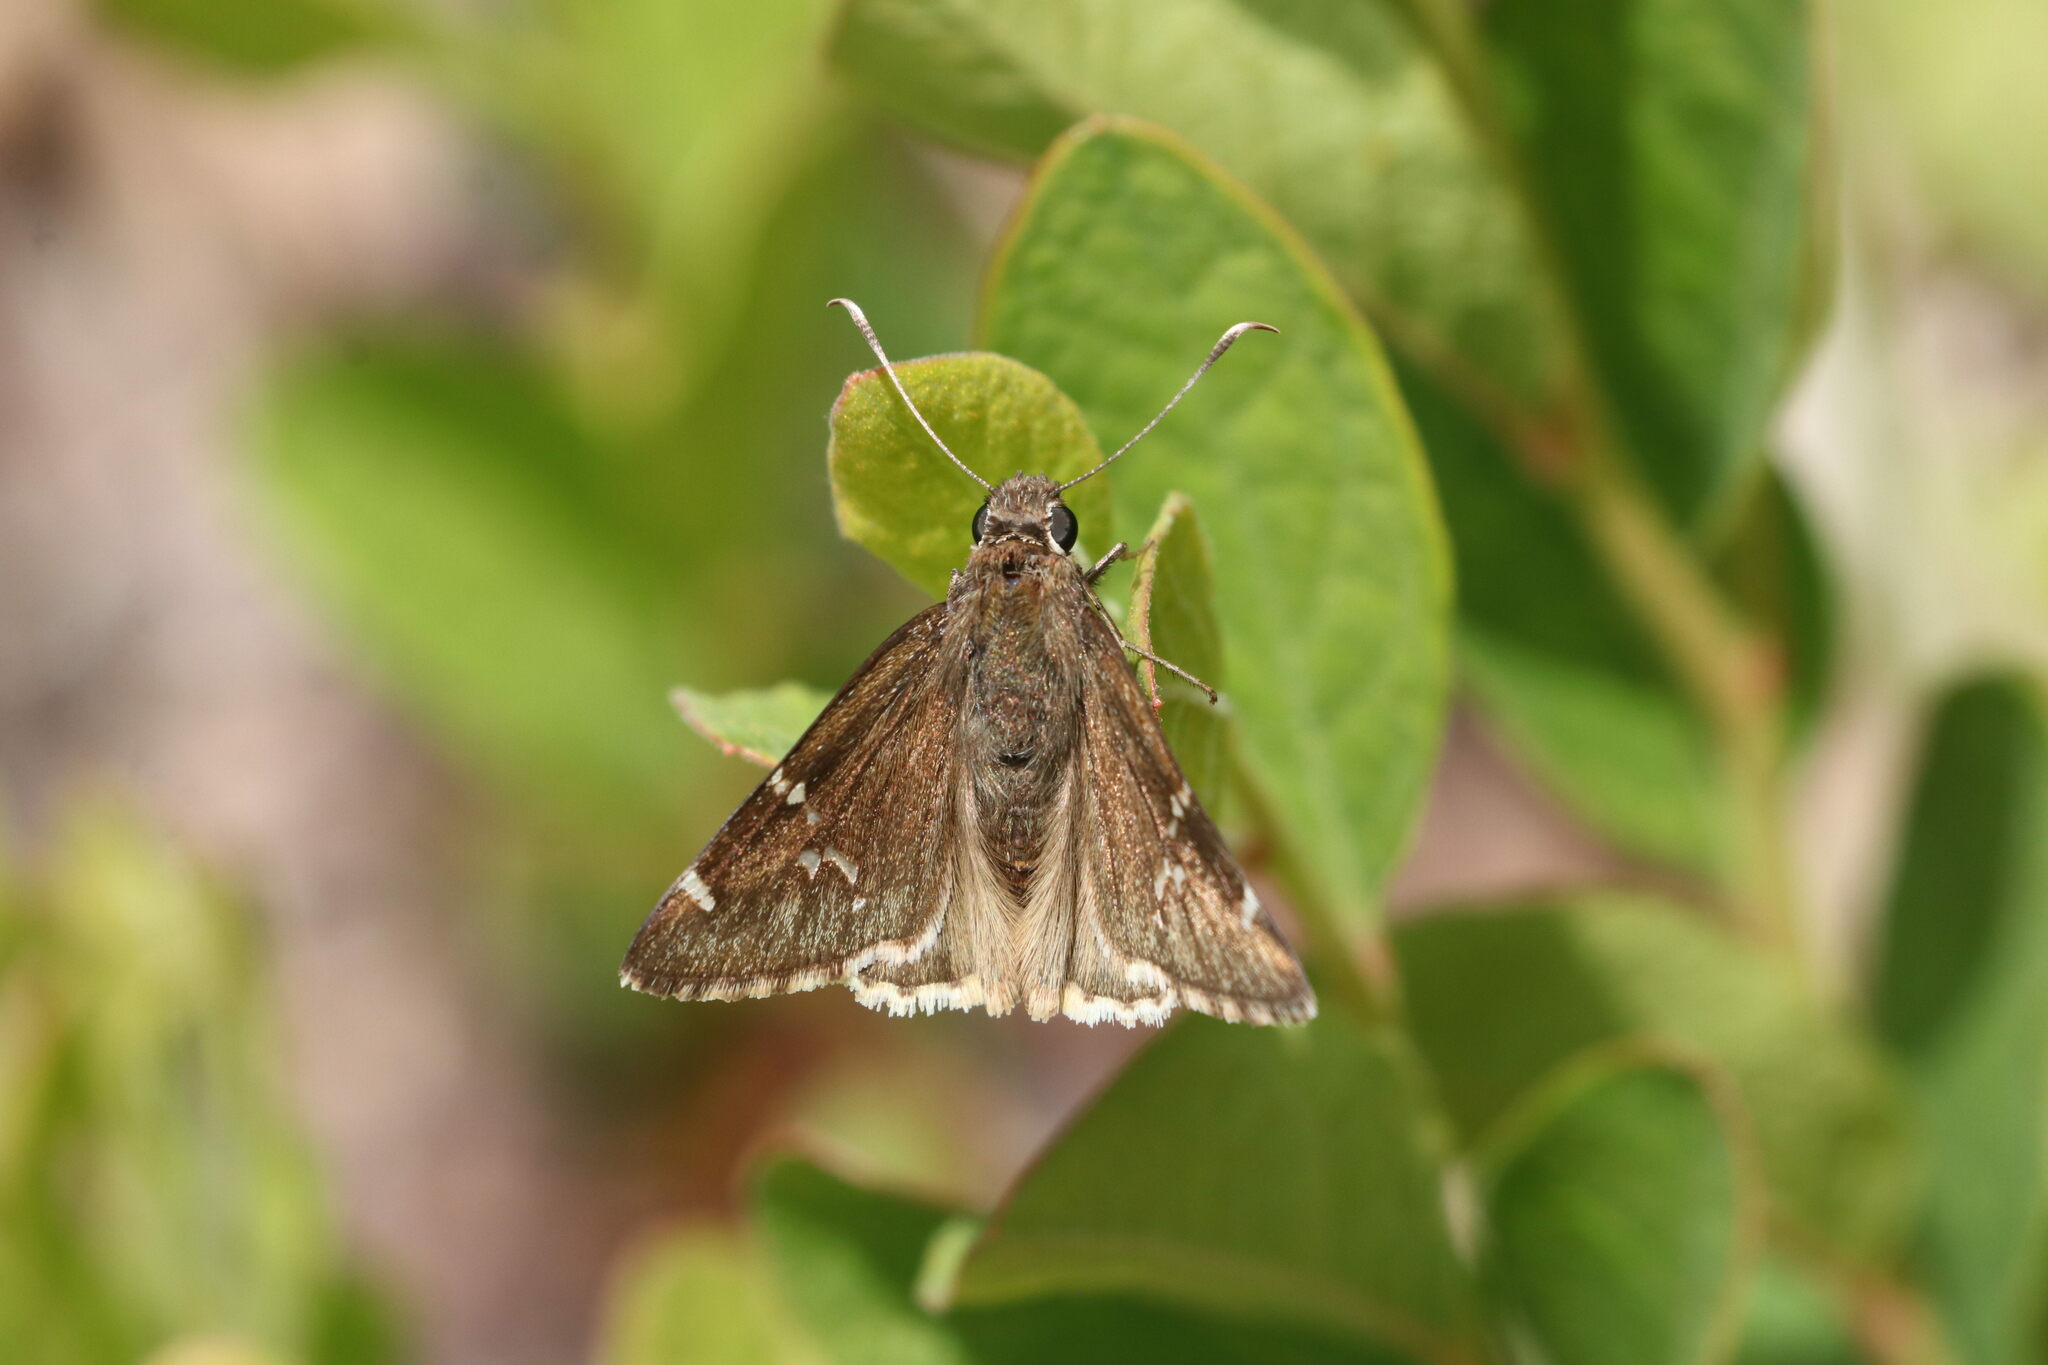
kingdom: Animalia
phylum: Arthropoda
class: Insecta
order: Lepidoptera
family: Hesperiidae
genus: Thorybes
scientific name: Thorybes daunus
